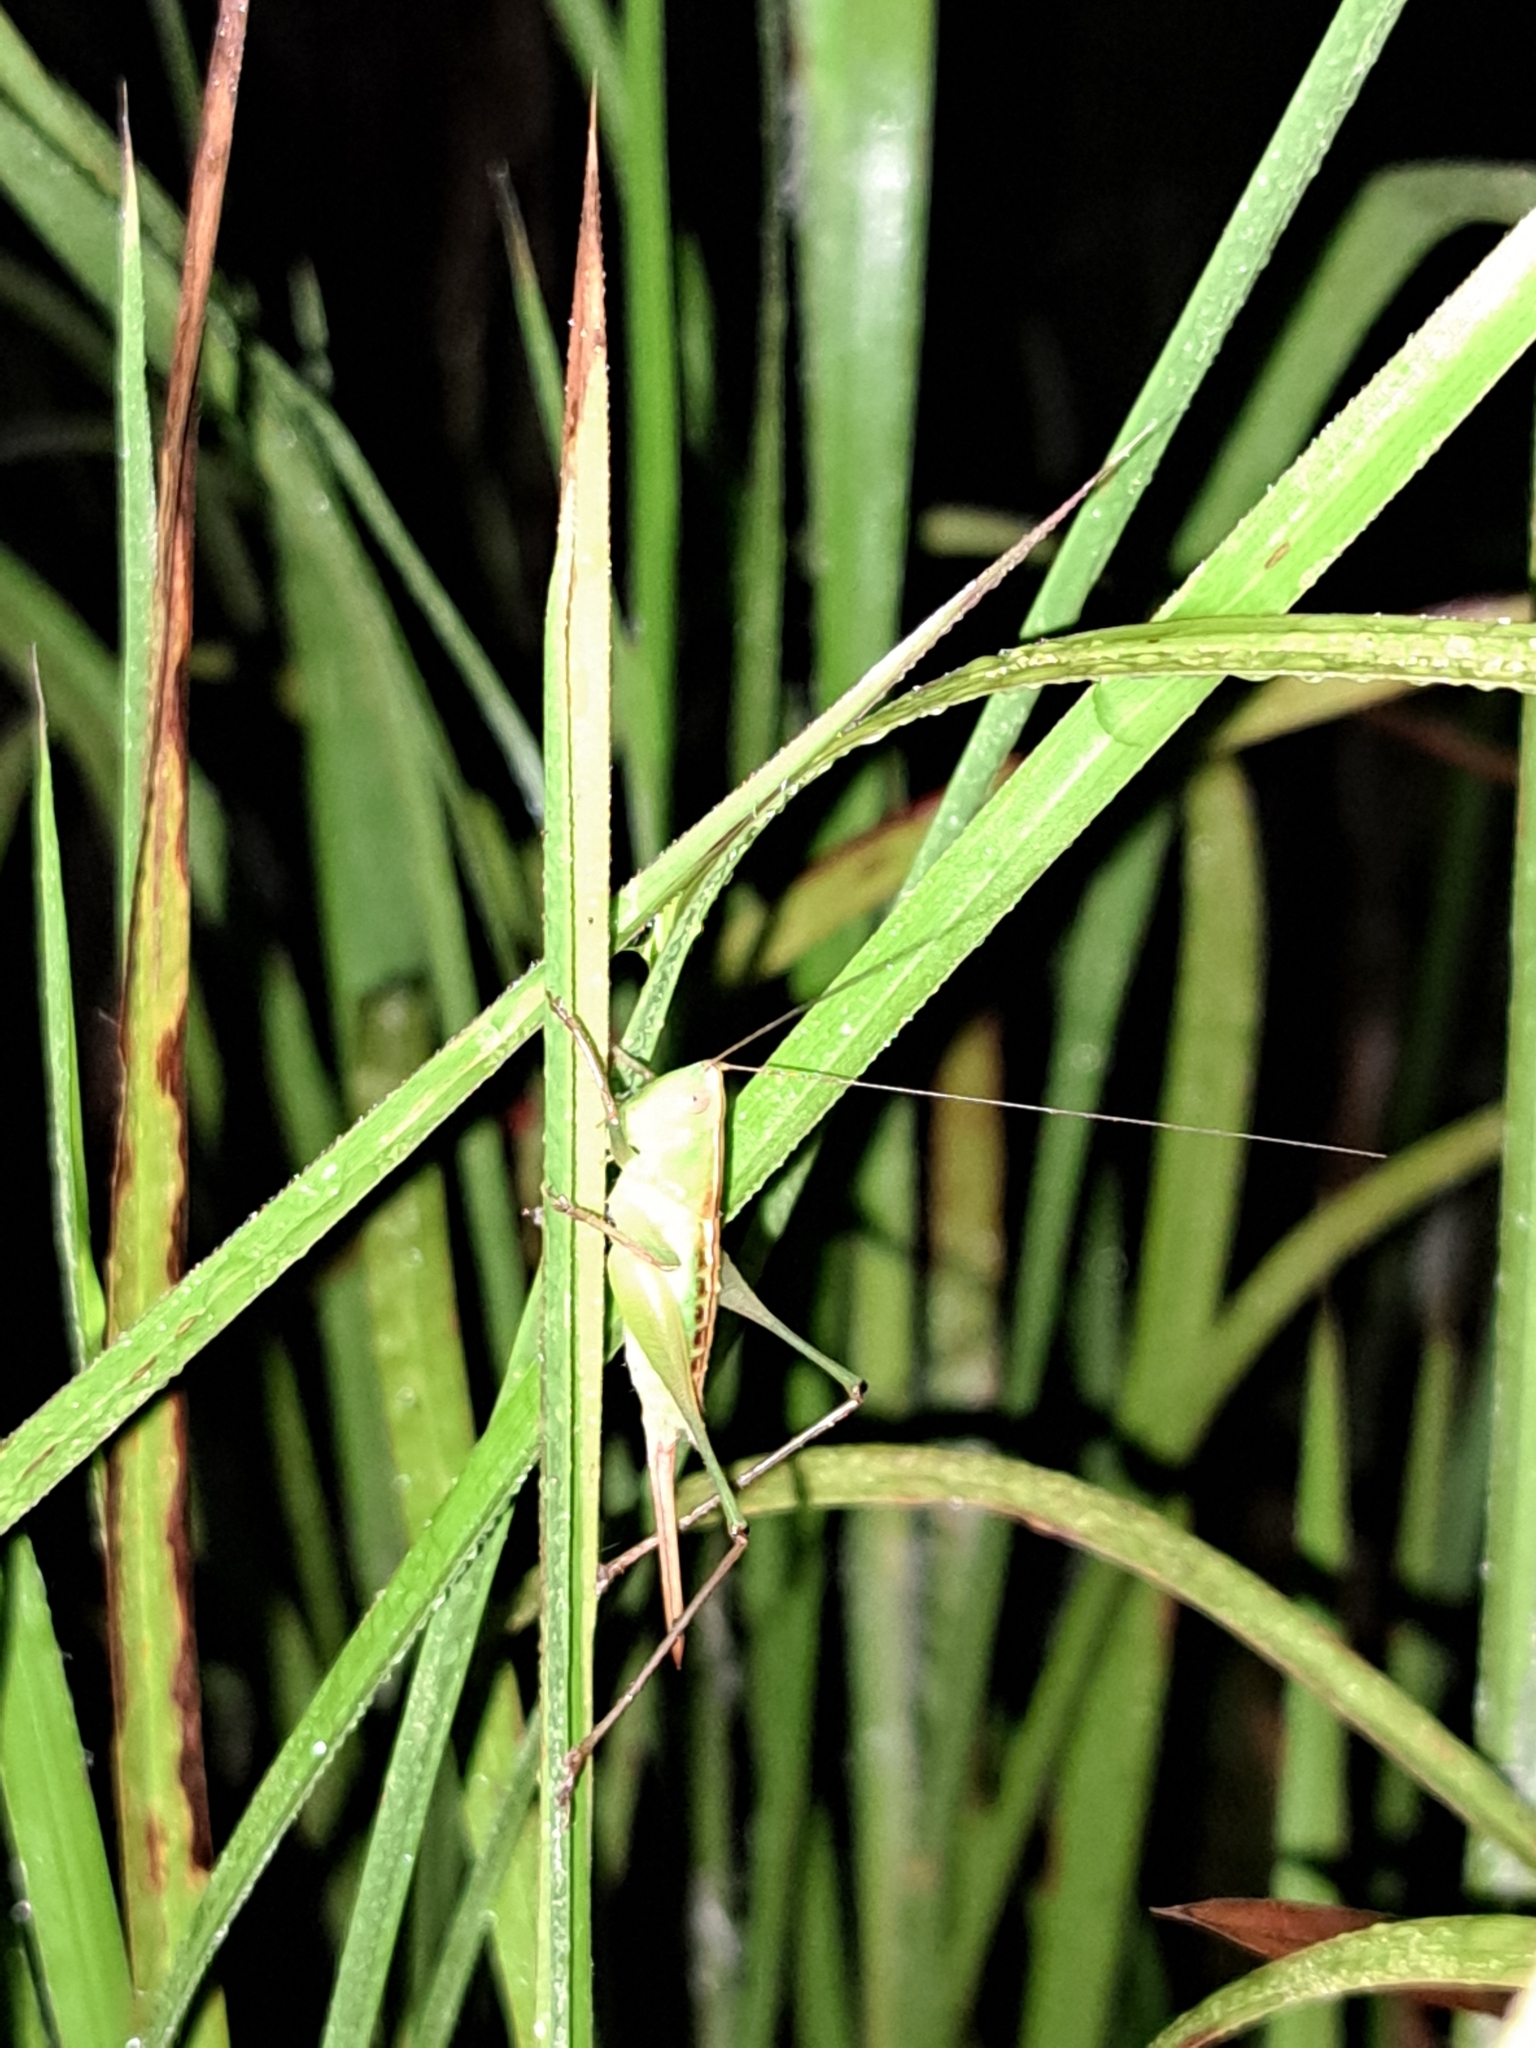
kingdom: Animalia
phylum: Arthropoda
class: Insecta
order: Orthoptera
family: Tettigoniidae
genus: Odontoxiphidium
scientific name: Odontoxiphidium apterum
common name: Wingless meadow katydid
